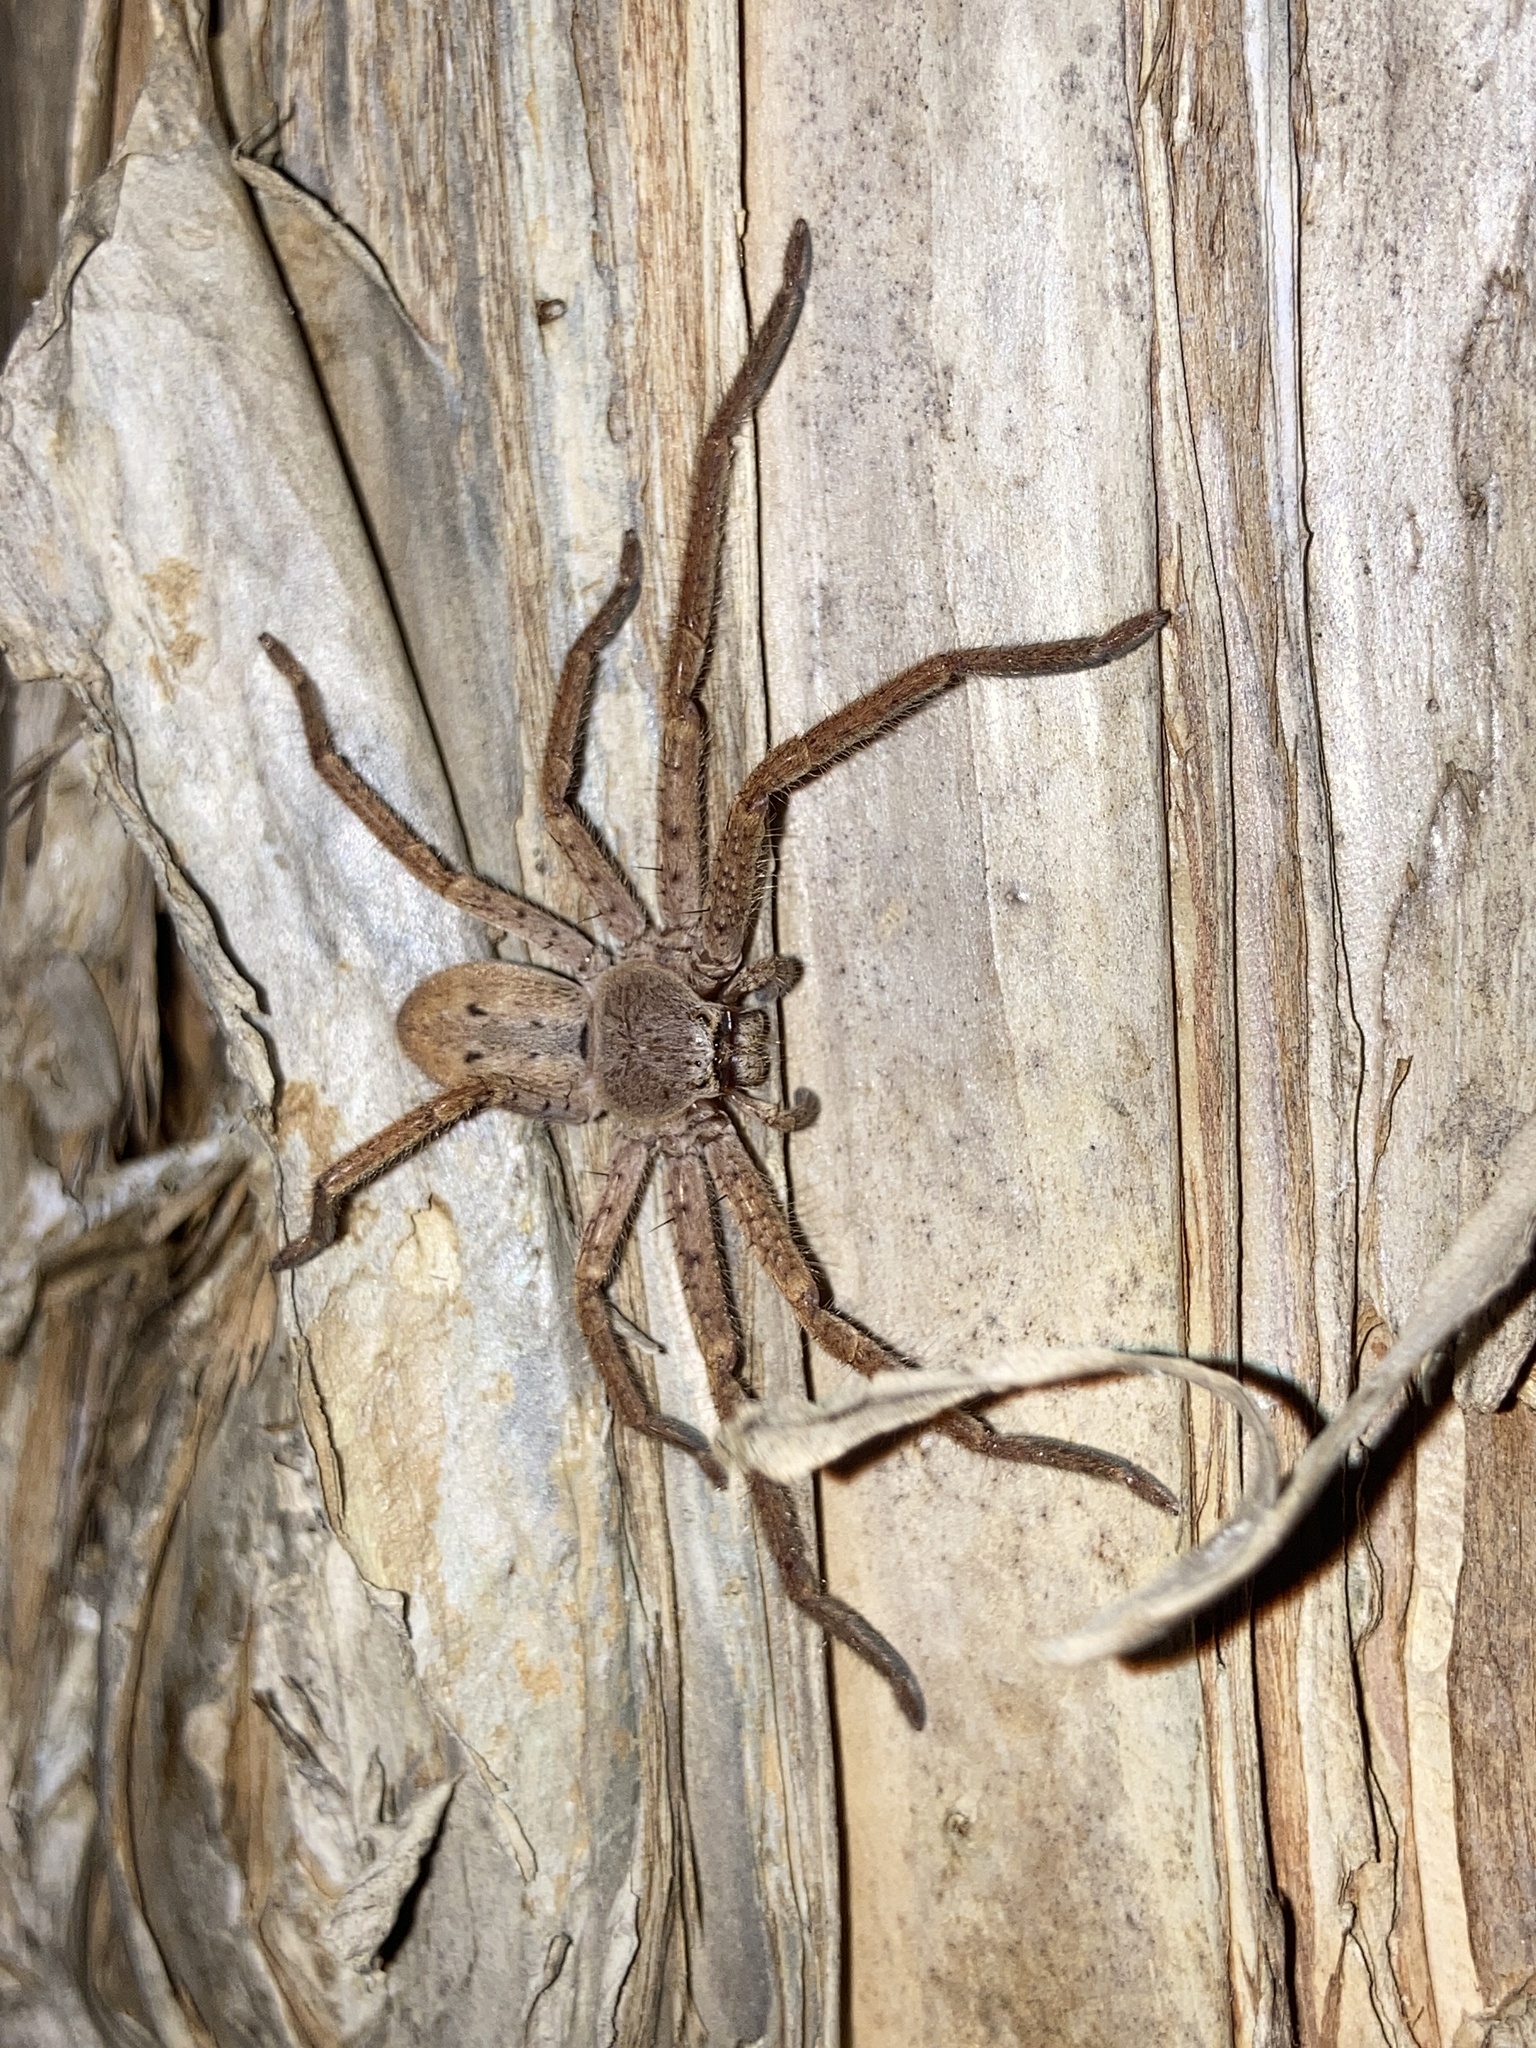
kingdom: Animalia
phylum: Arthropoda
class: Arachnida
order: Araneae
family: Sparassidae
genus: Isopeda
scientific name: Isopeda villosa
